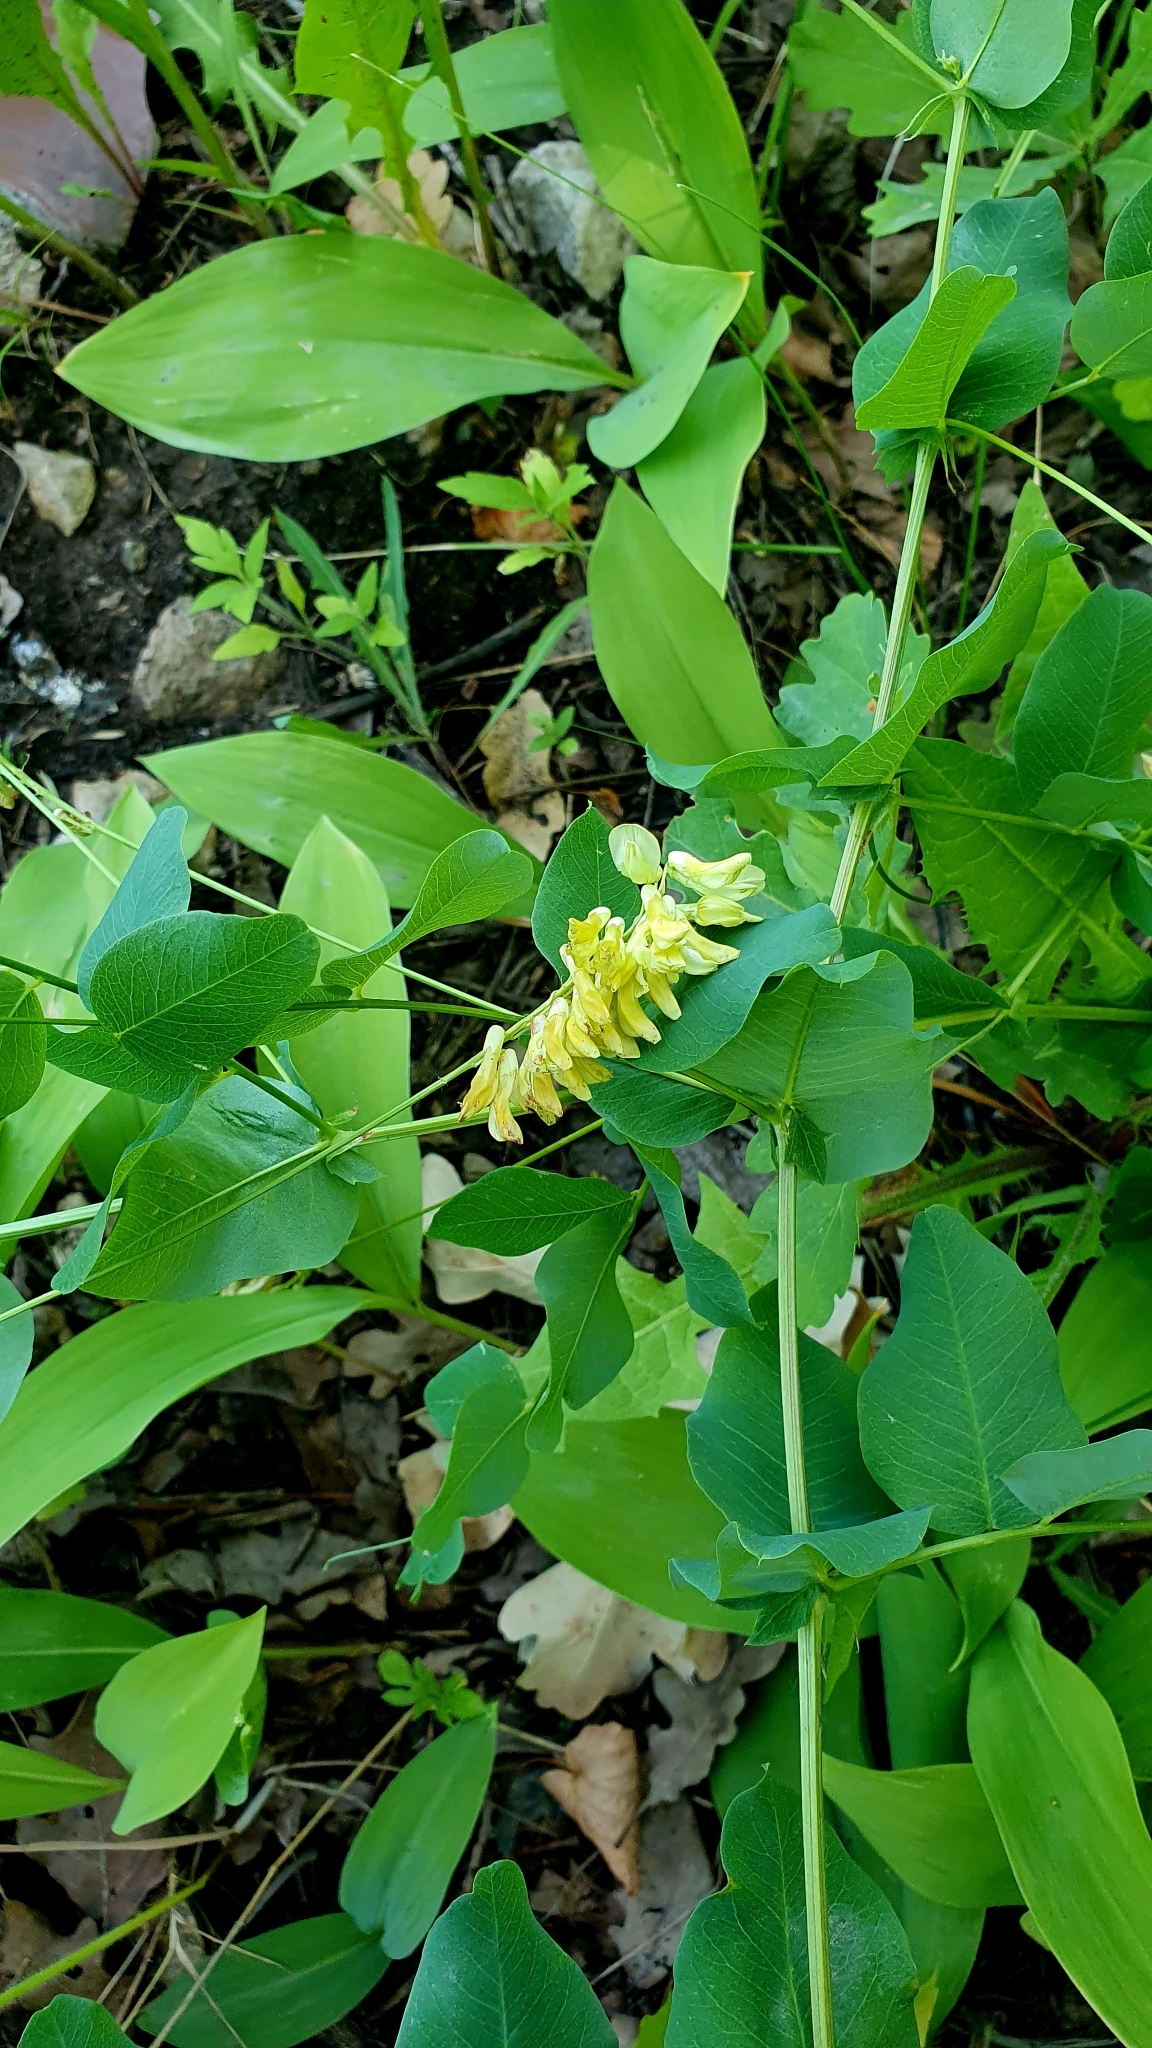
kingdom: Plantae
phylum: Tracheophyta
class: Magnoliopsida
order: Fabales
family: Fabaceae
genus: Vicia
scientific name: Vicia pisiformis
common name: Pale-flower vetch
